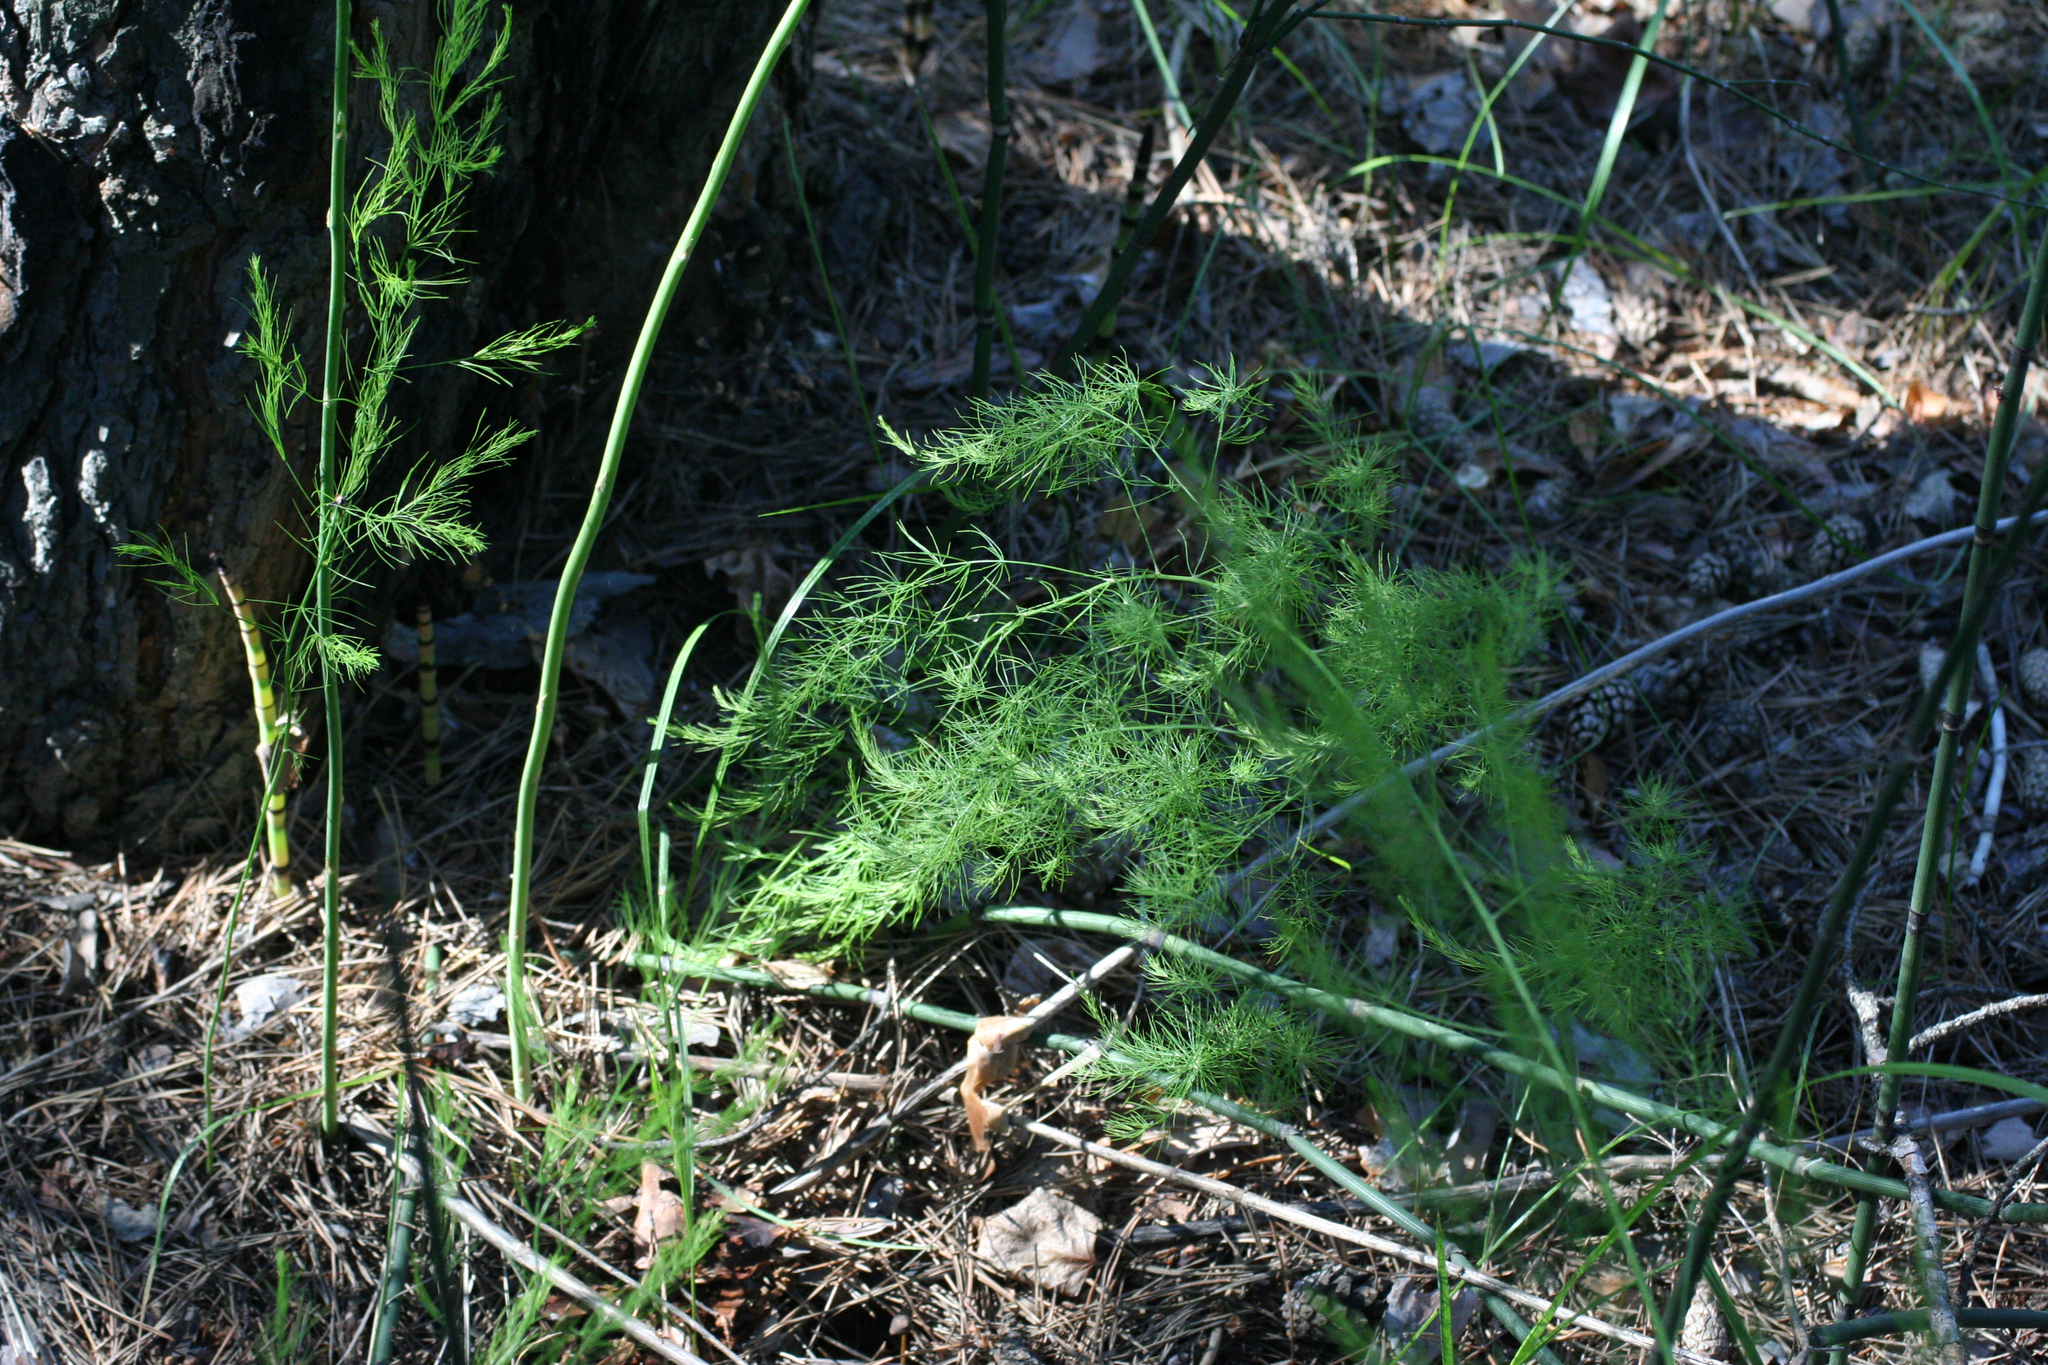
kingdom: Plantae
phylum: Tracheophyta
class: Liliopsida
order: Asparagales
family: Asparagaceae
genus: Asparagus
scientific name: Asparagus officinalis
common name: Garden asparagus
